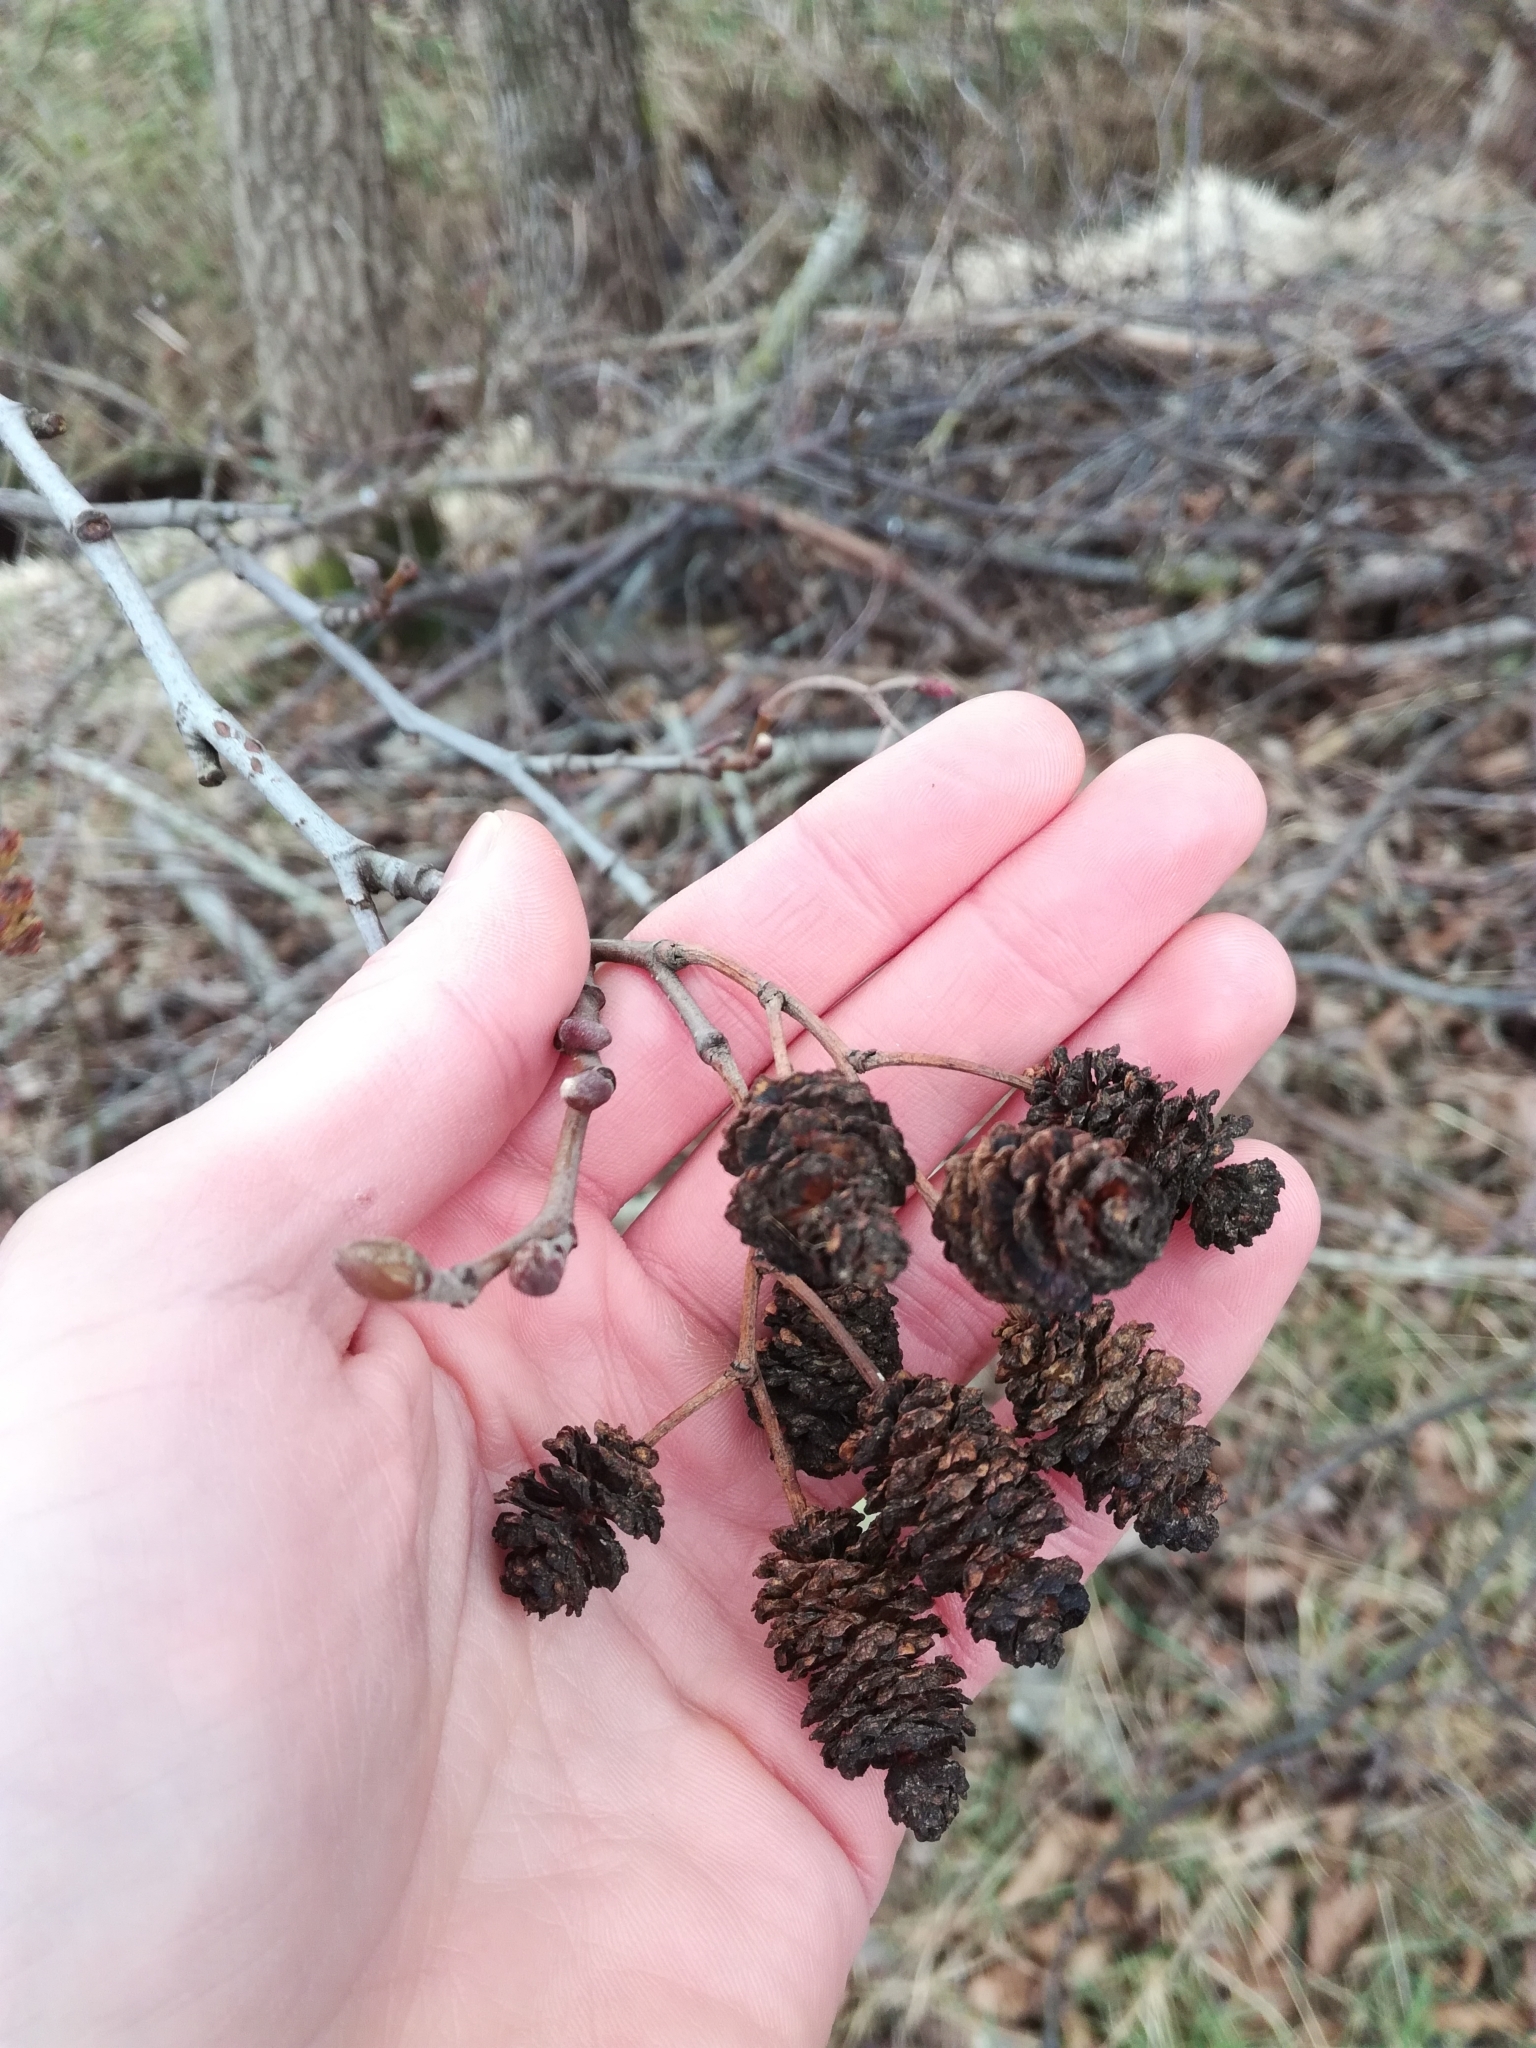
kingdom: Plantae
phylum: Tracheophyta
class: Magnoliopsida
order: Fagales
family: Betulaceae
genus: Alnus
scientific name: Alnus glutinosa
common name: Black alder
